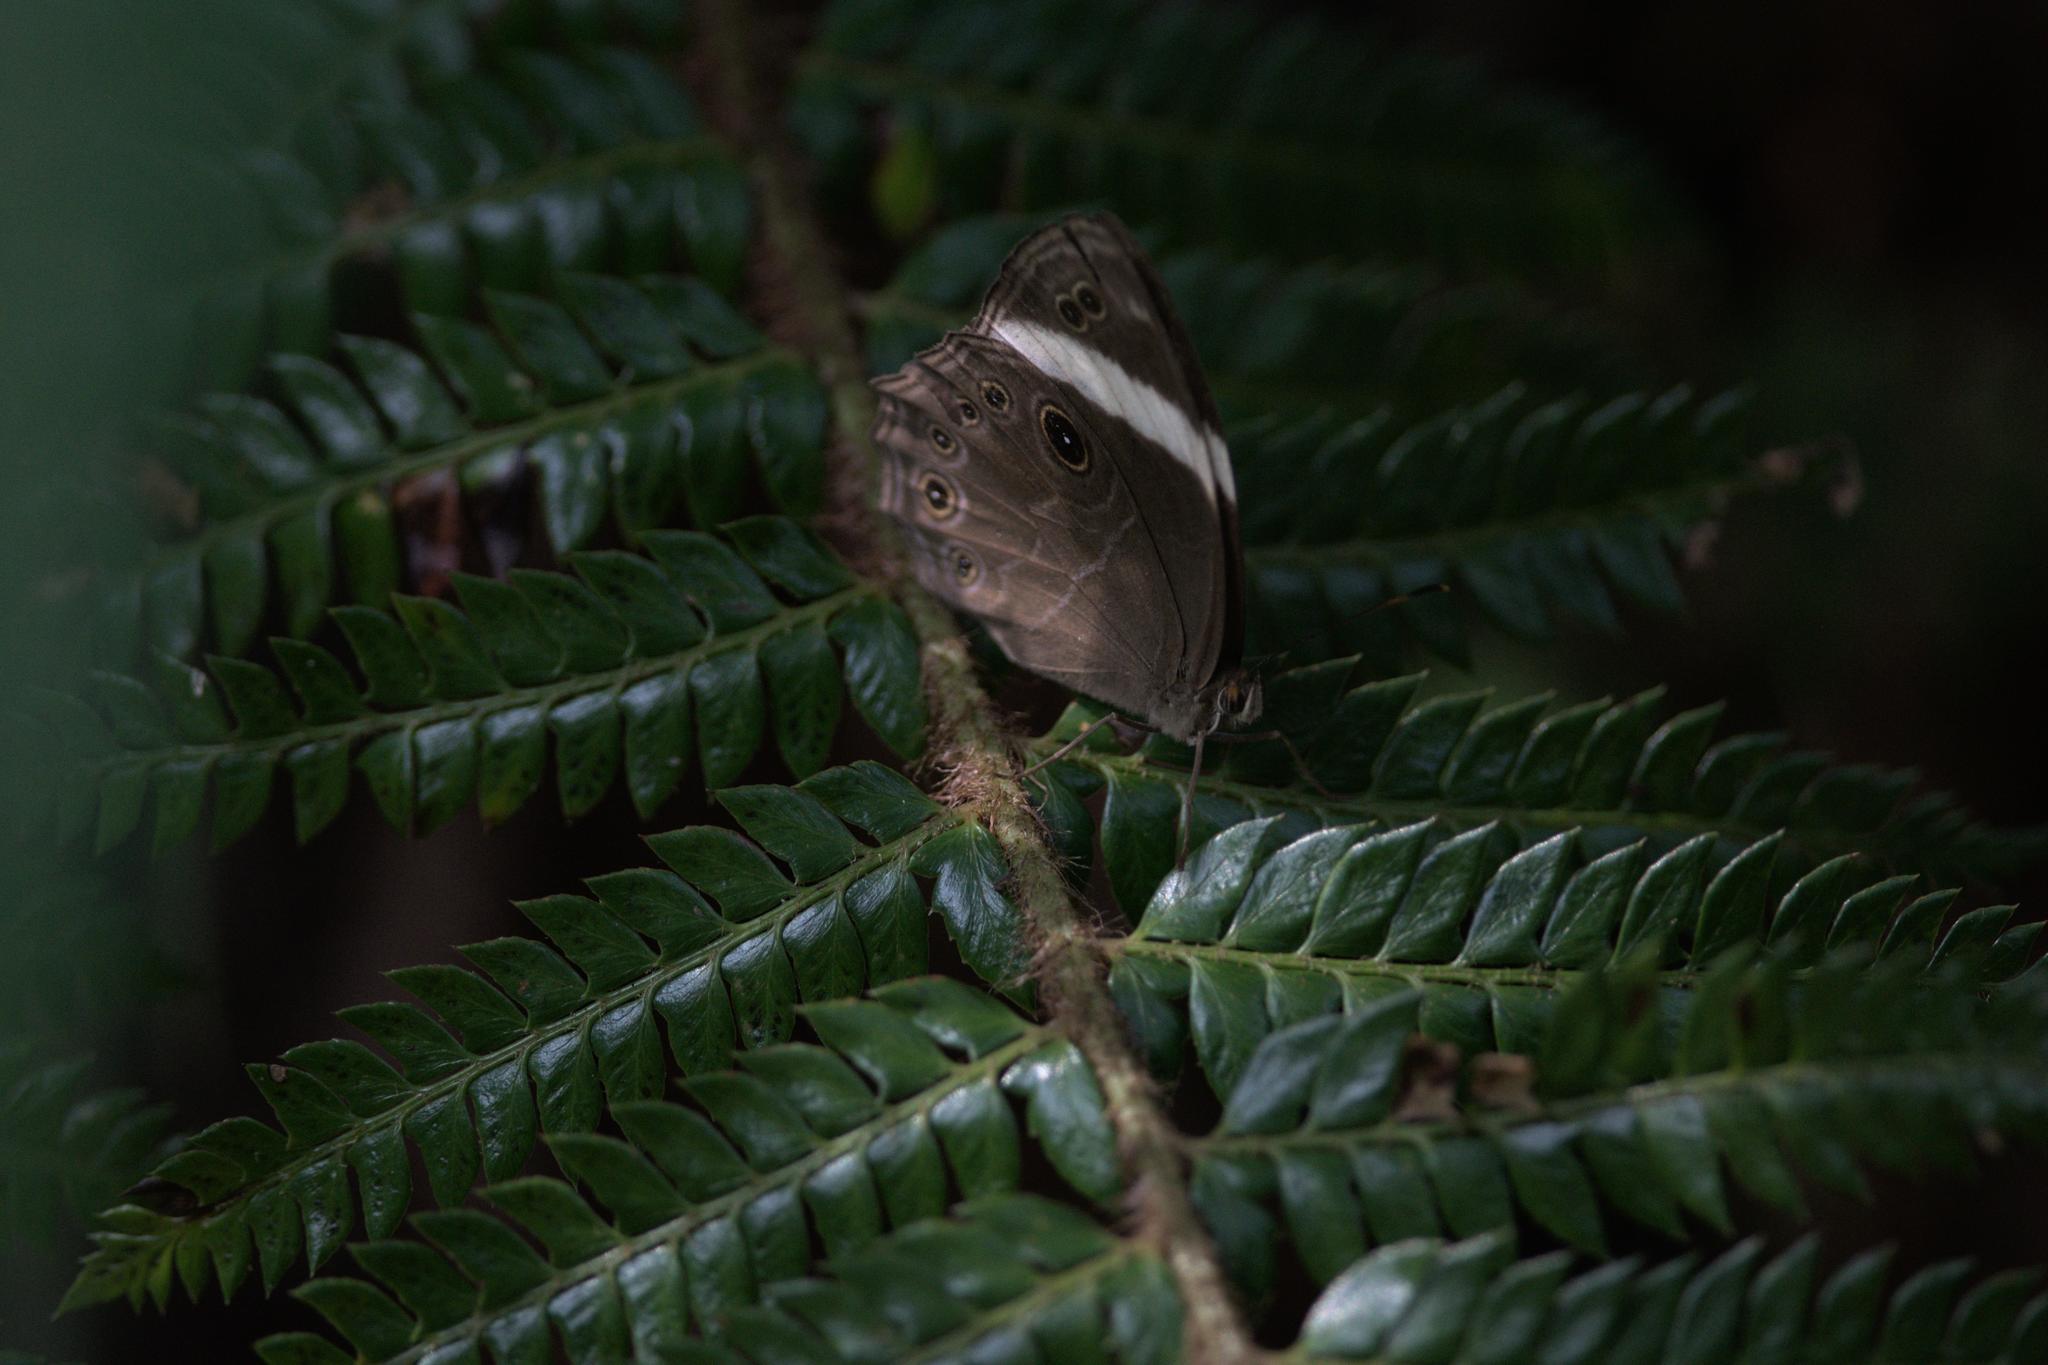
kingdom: Animalia
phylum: Arthropoda
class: Insecta
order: Lepidoptera
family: Nymphalidae
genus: Lethe
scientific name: Lethe verma
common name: Straight-banded treebrown
